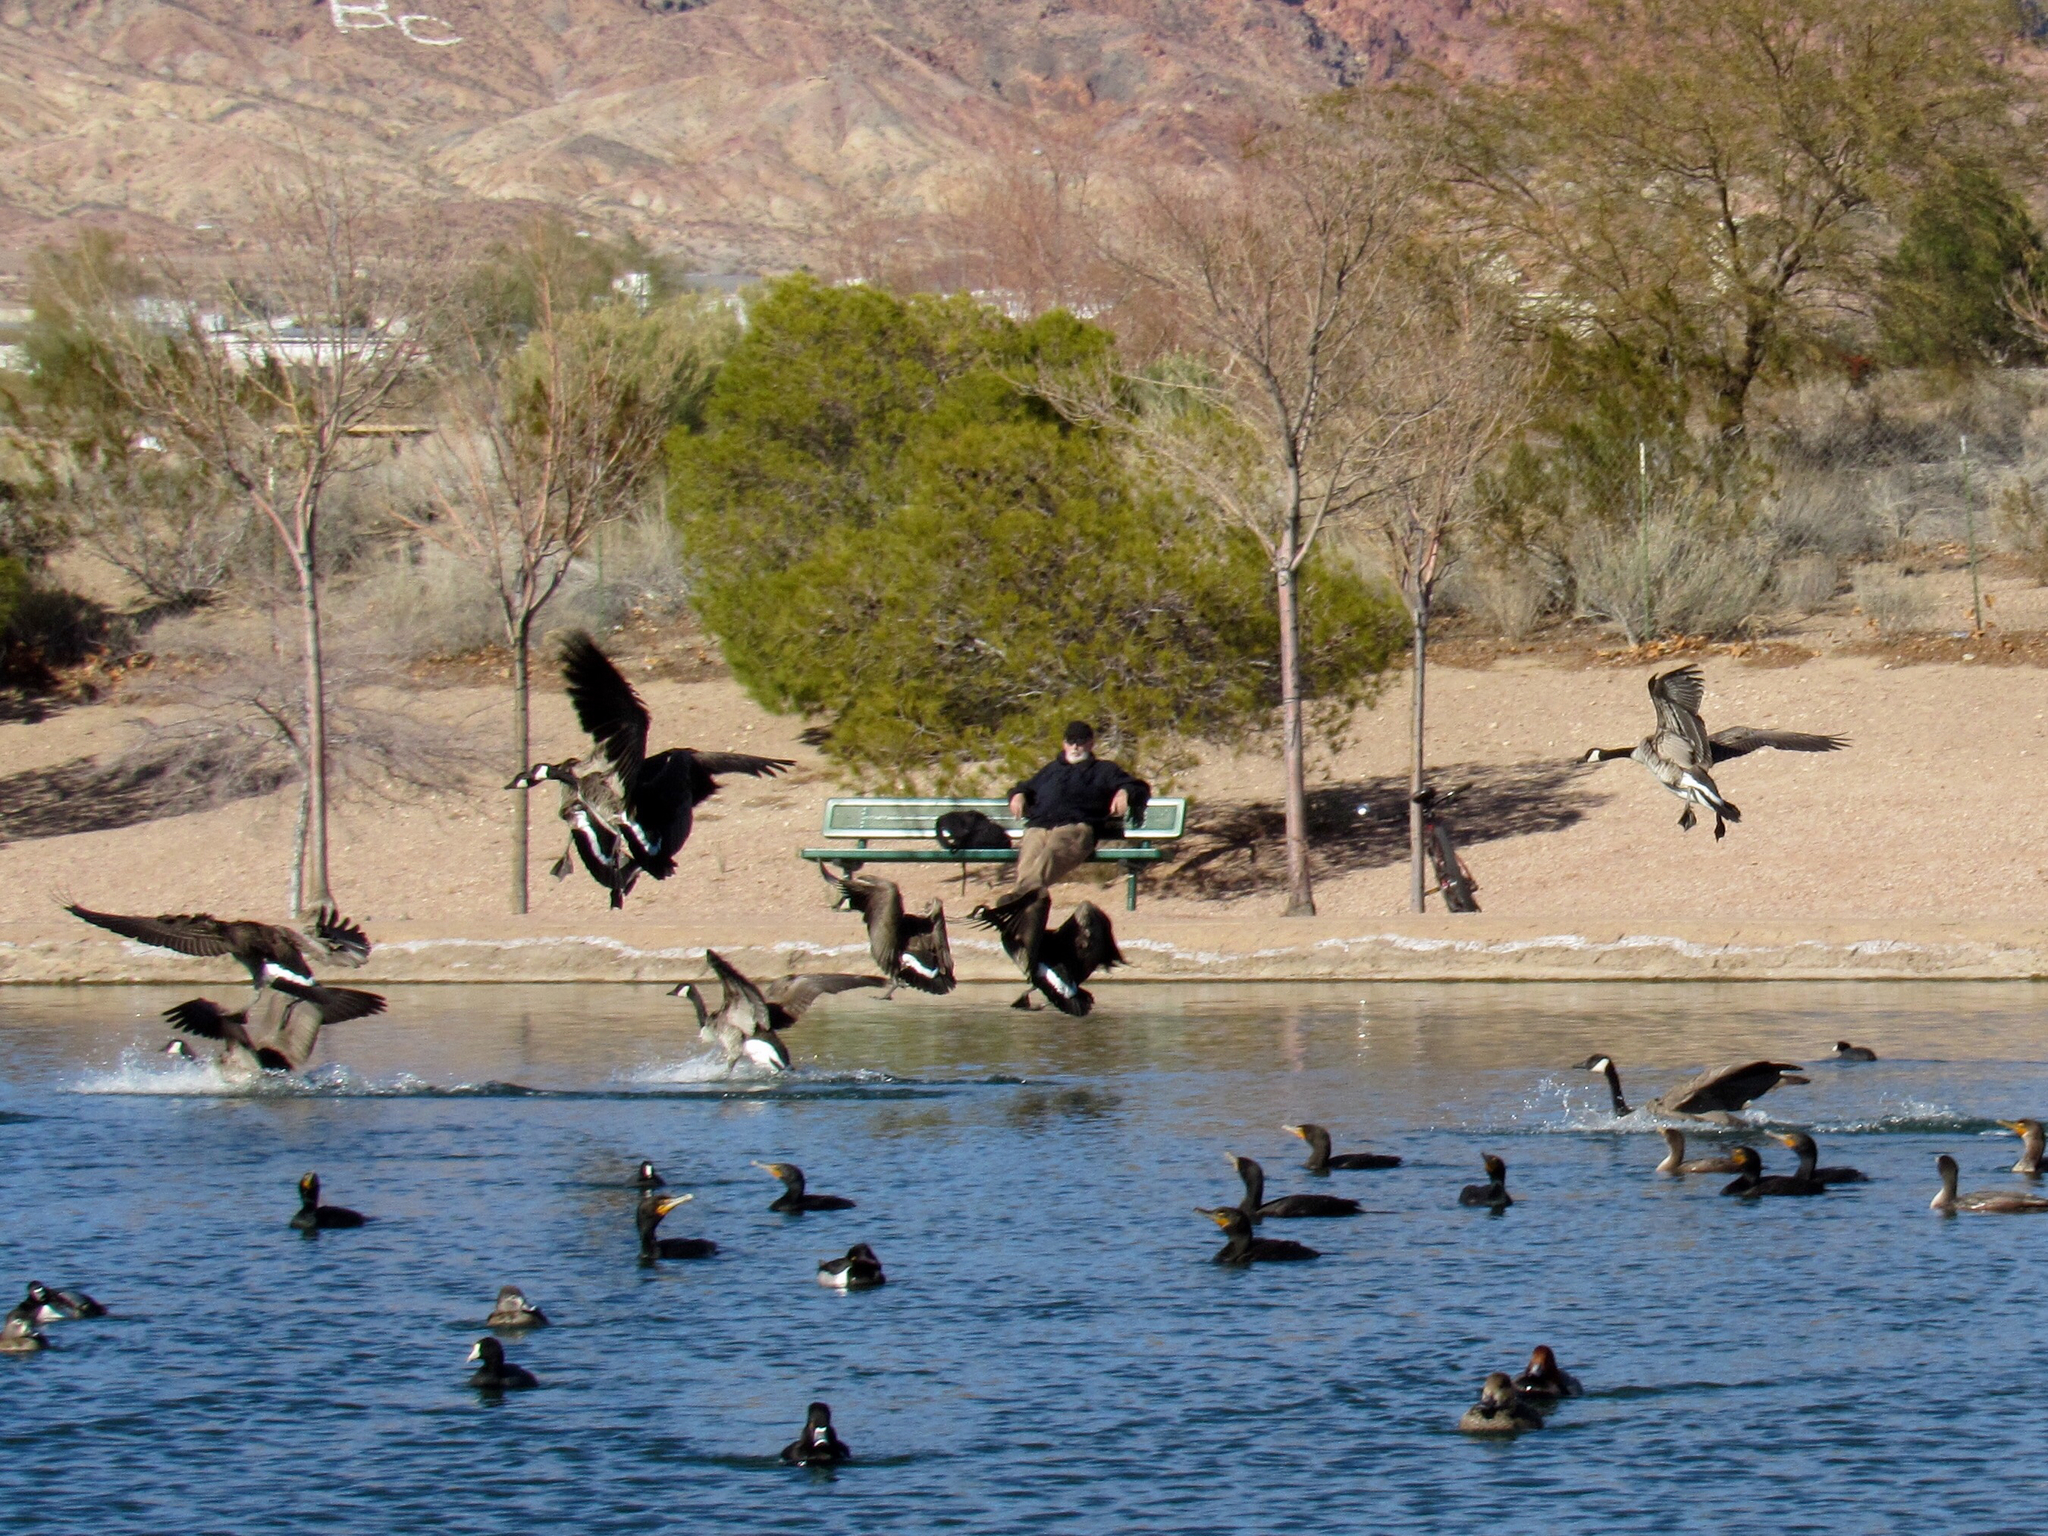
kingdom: Animalia
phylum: Chordata
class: Aves
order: Anseriformes
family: Anatidae
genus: Branta
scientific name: Branta canadensis
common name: Canada goose
